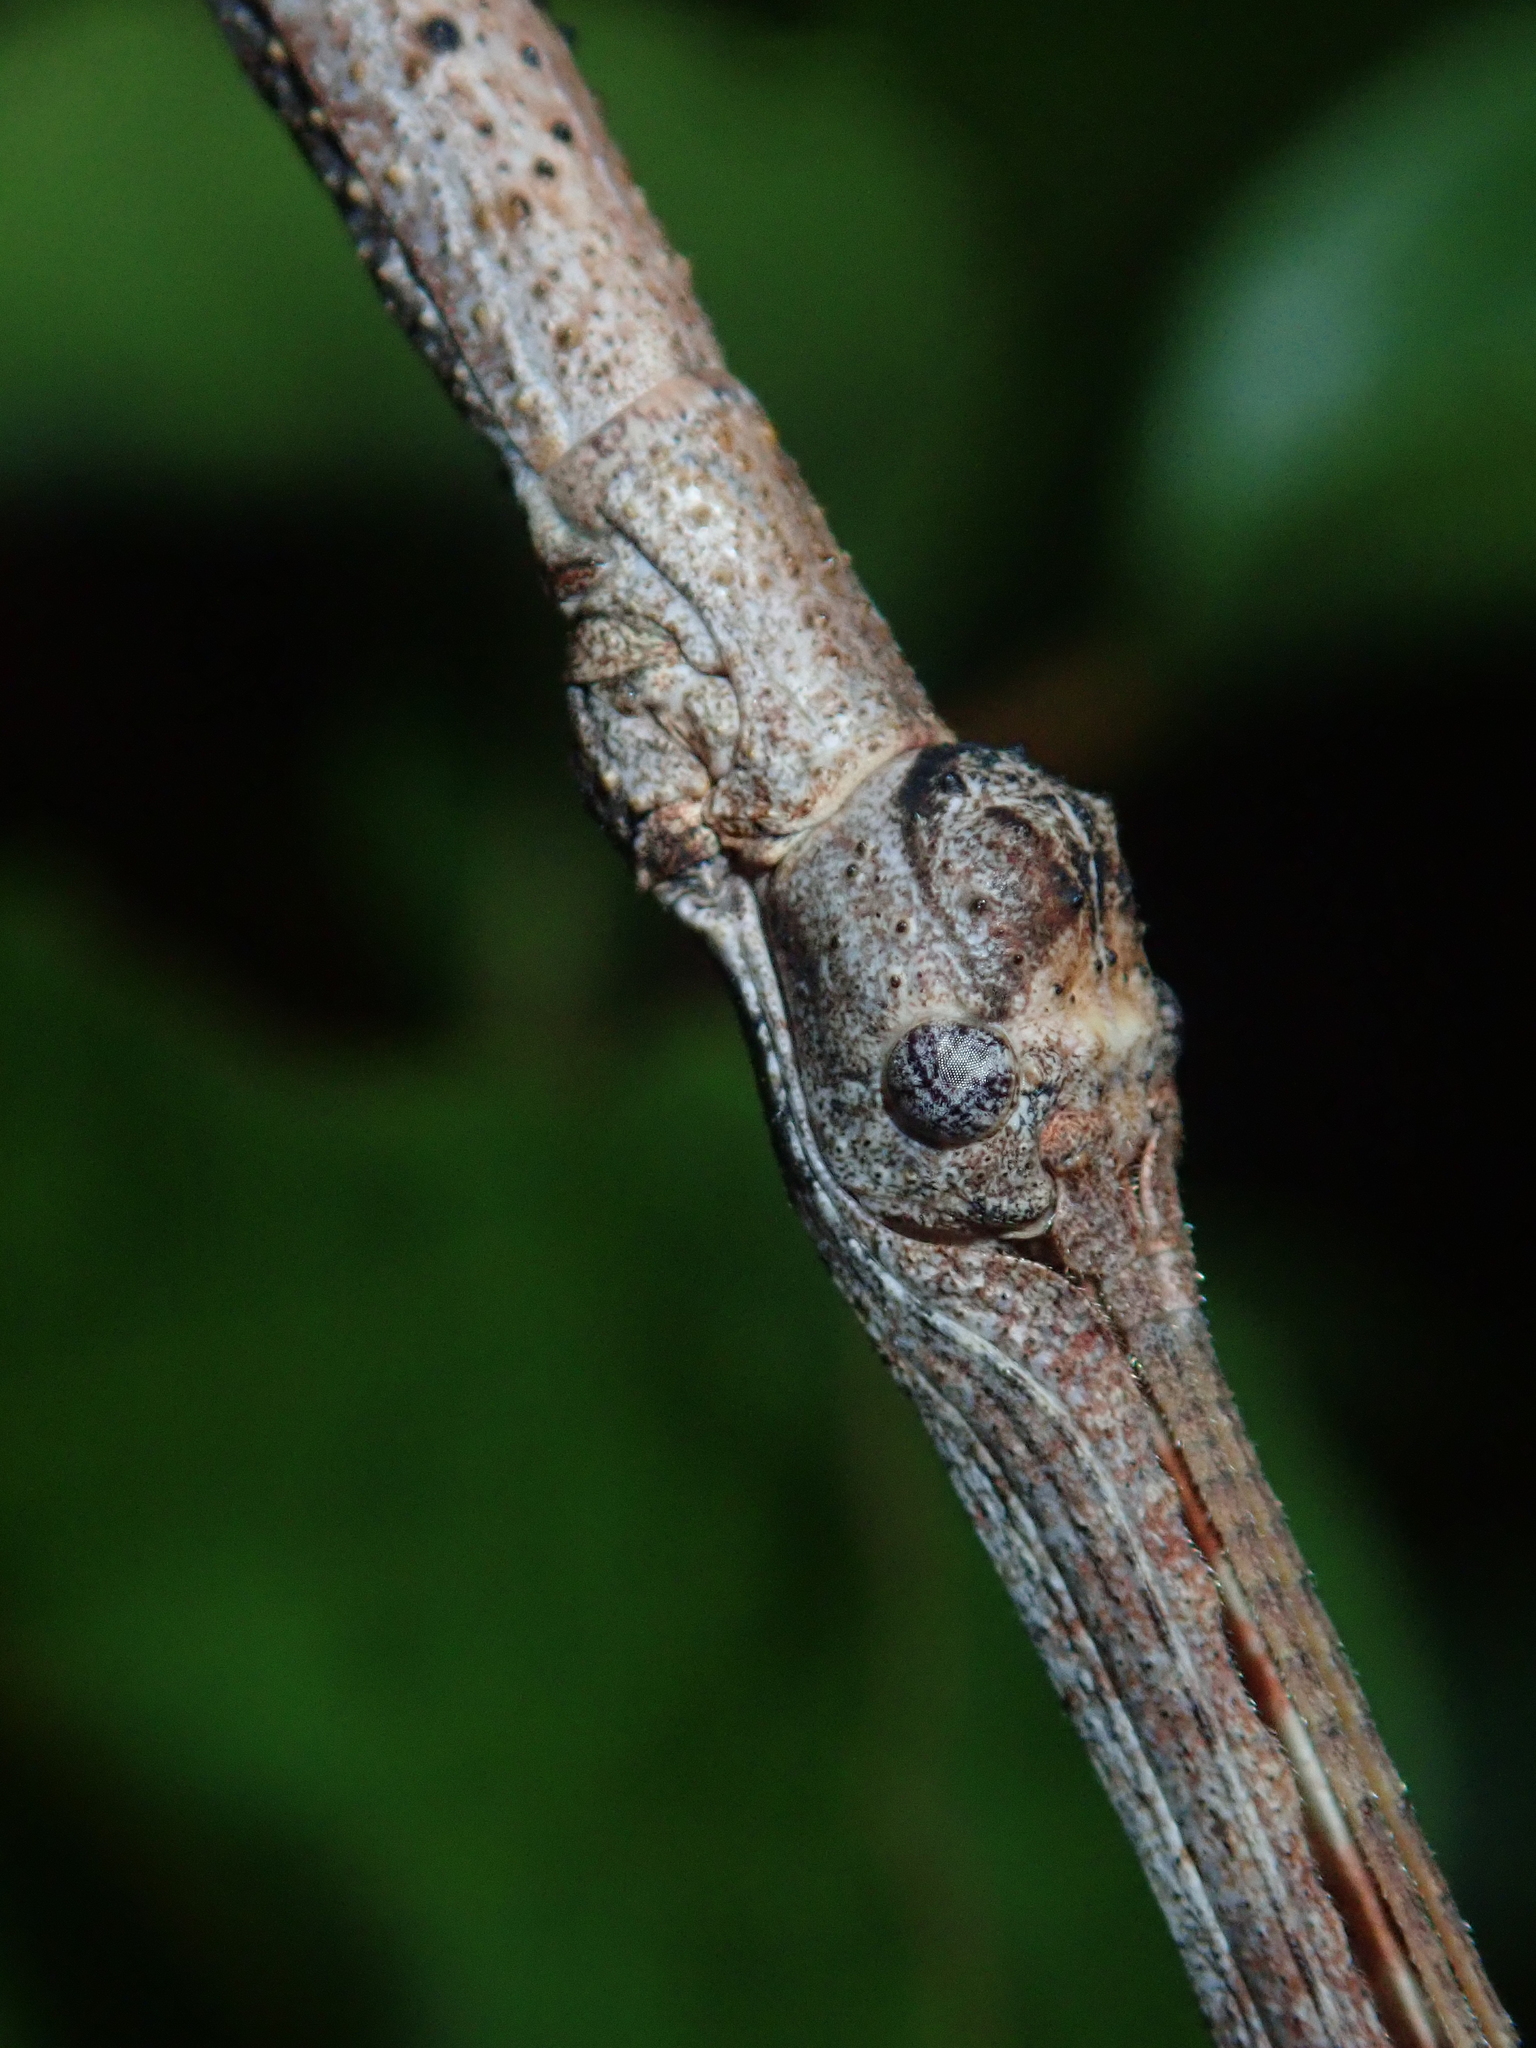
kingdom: Animalia
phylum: Arthropoda
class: Insecta
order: Phasmida
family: Phasmatidae
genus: Cladomorphus
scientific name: Cladomorphus trimariensis
